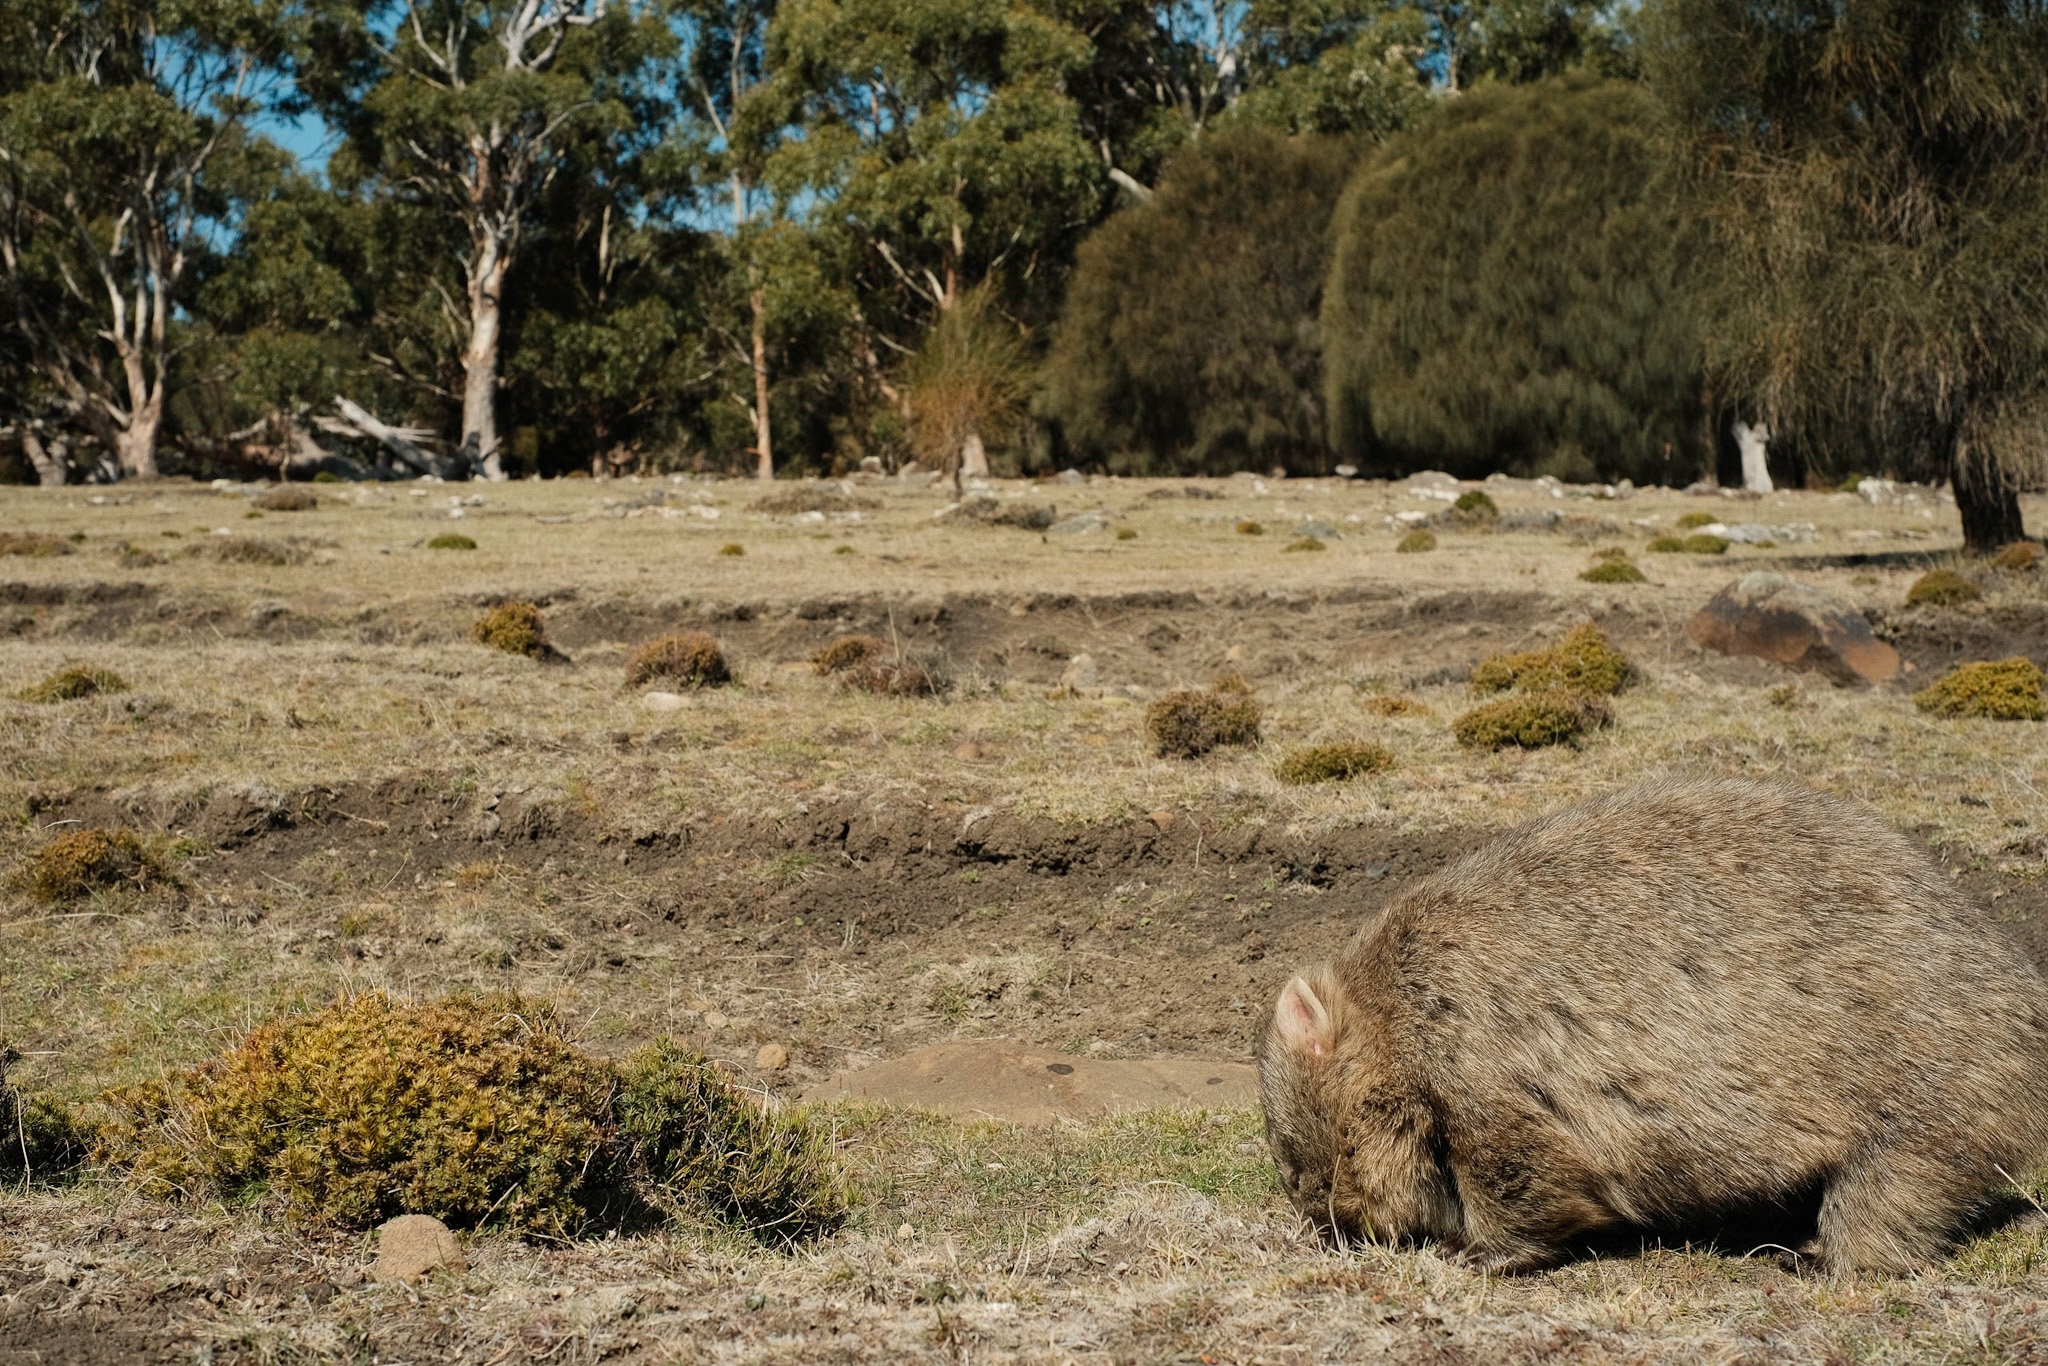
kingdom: Animalia
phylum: Chordata
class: Mammalia
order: Diprotodontia
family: Vombatidae
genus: Vombatus
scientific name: Vombatus ursinus
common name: Common wombat
